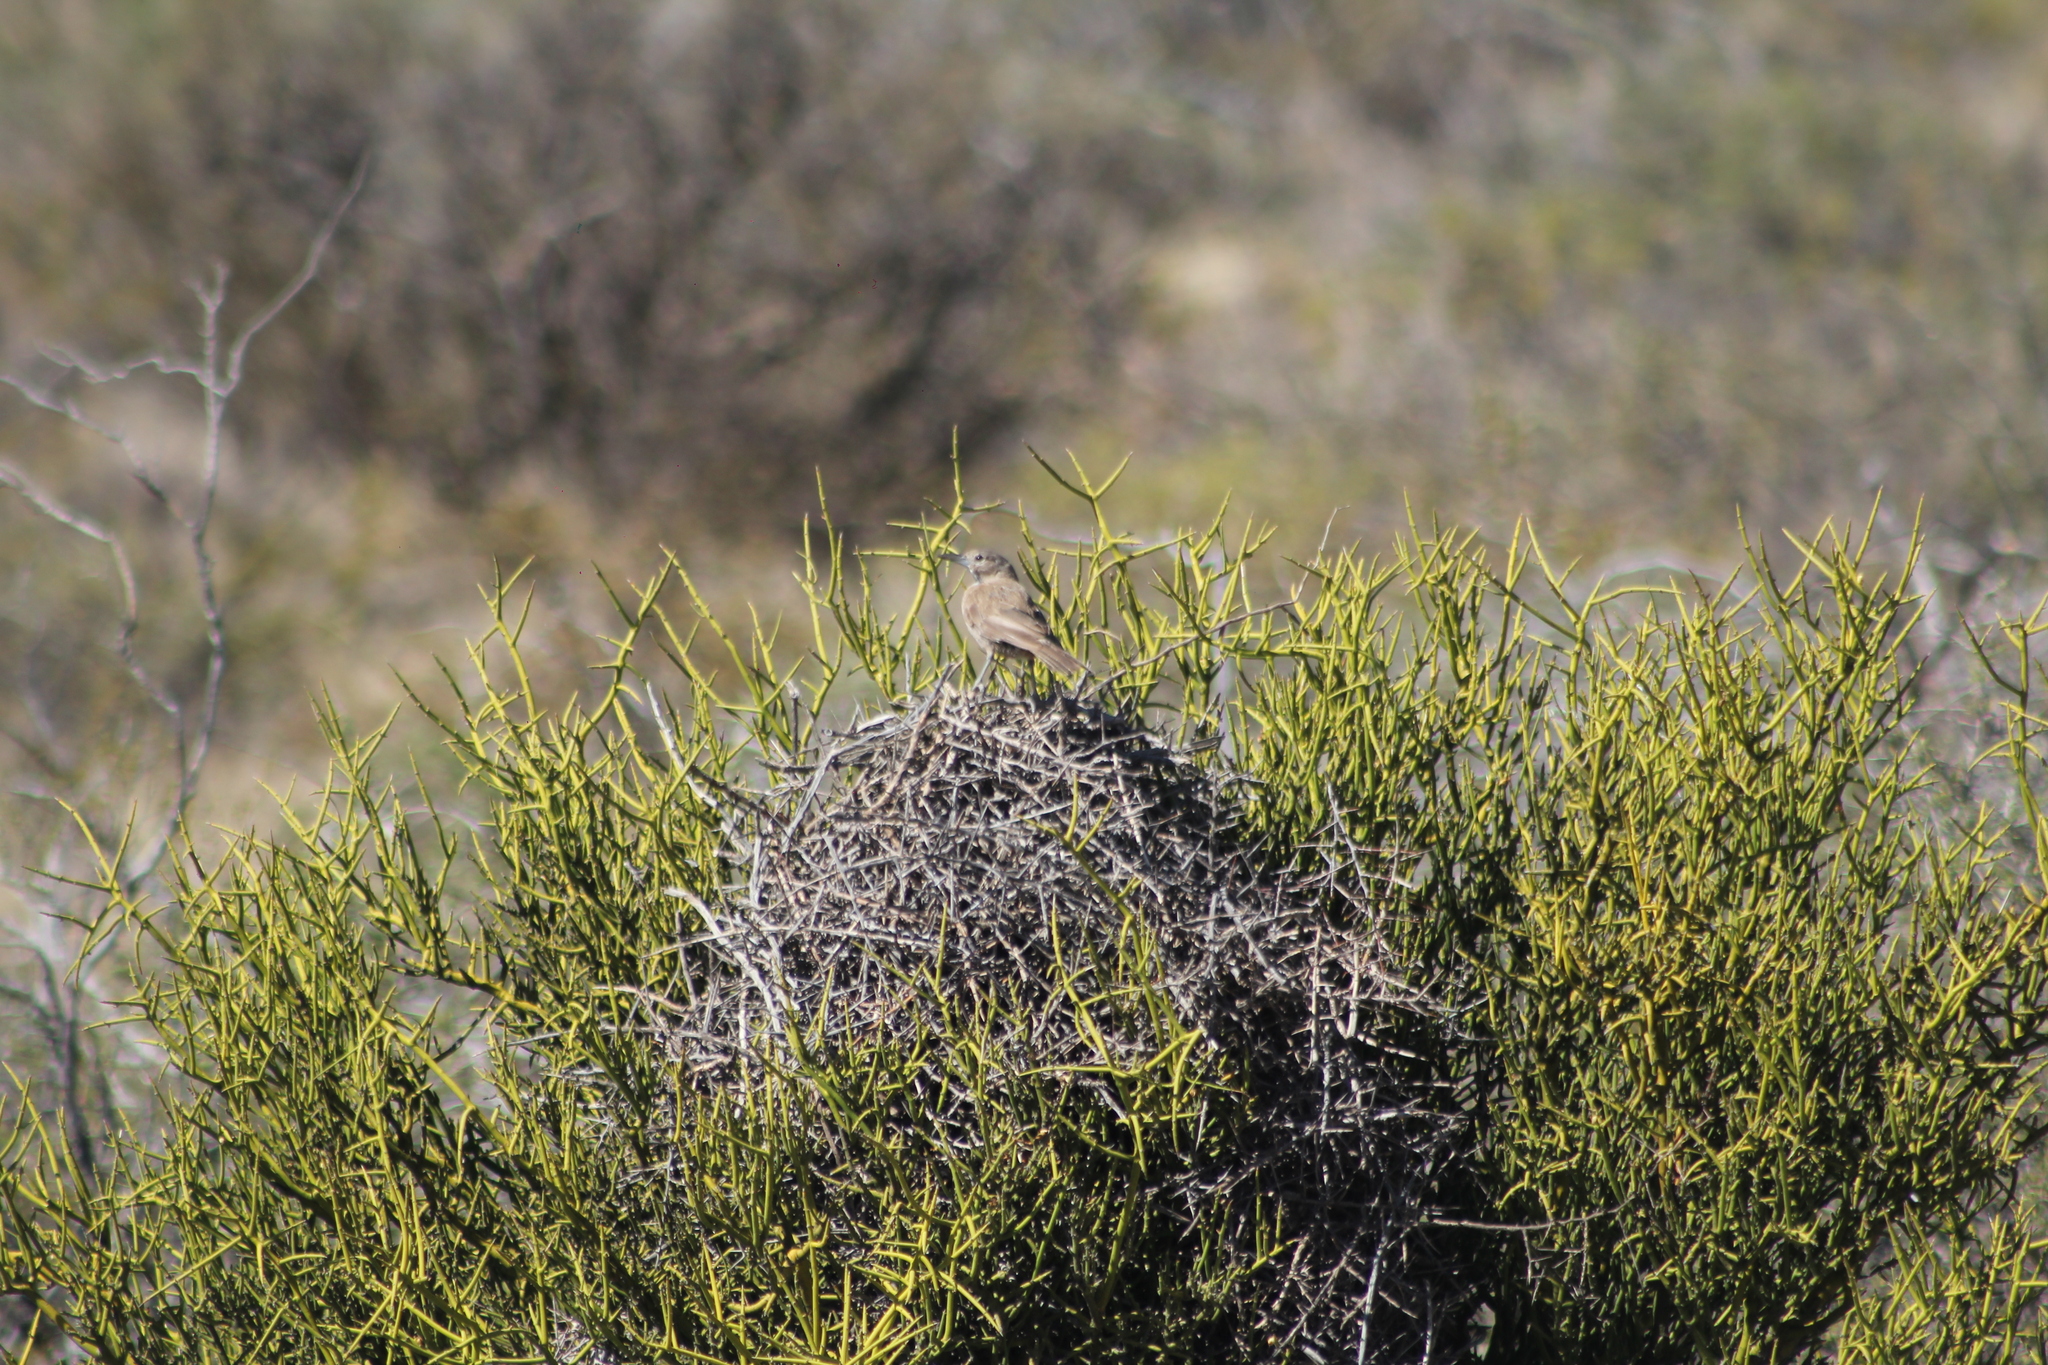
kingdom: Animalia
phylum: Chordata
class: Aves
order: Passeriformes
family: Furnariidae
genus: Pseudoseisura
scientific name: Pseudoseisura gutturalis
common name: White-throated cacholote
